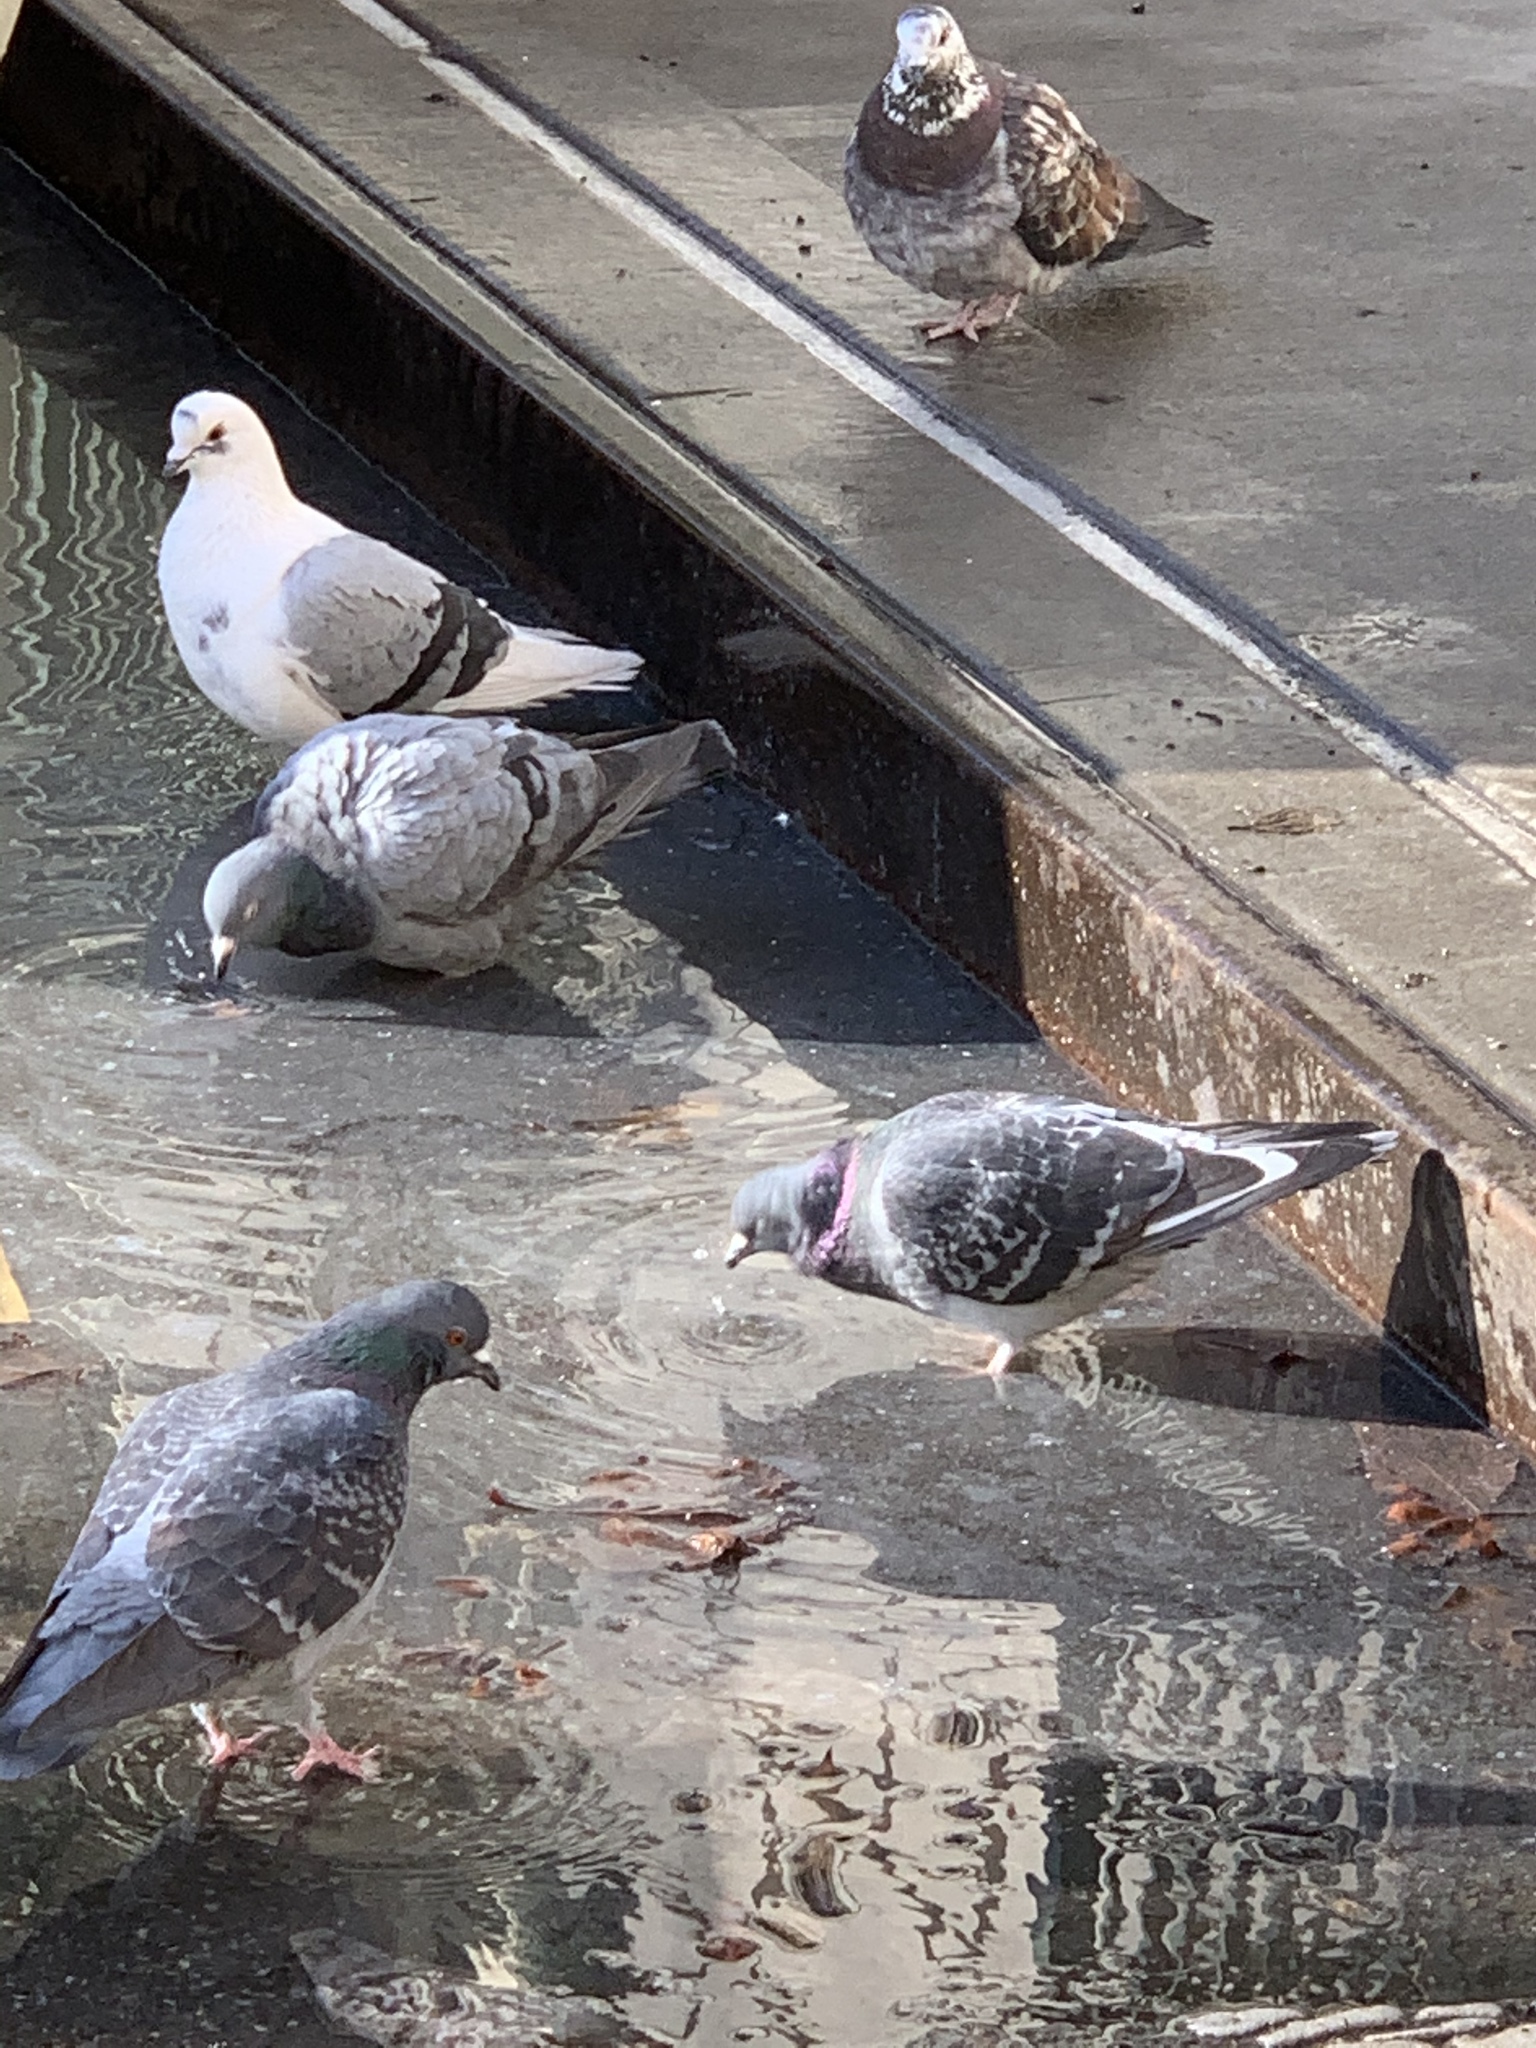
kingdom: Animalia
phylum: Chordata
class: Aves
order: Columbiformes
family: Columbidae
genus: Columba
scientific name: Columba livia
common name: Rock pigeon
